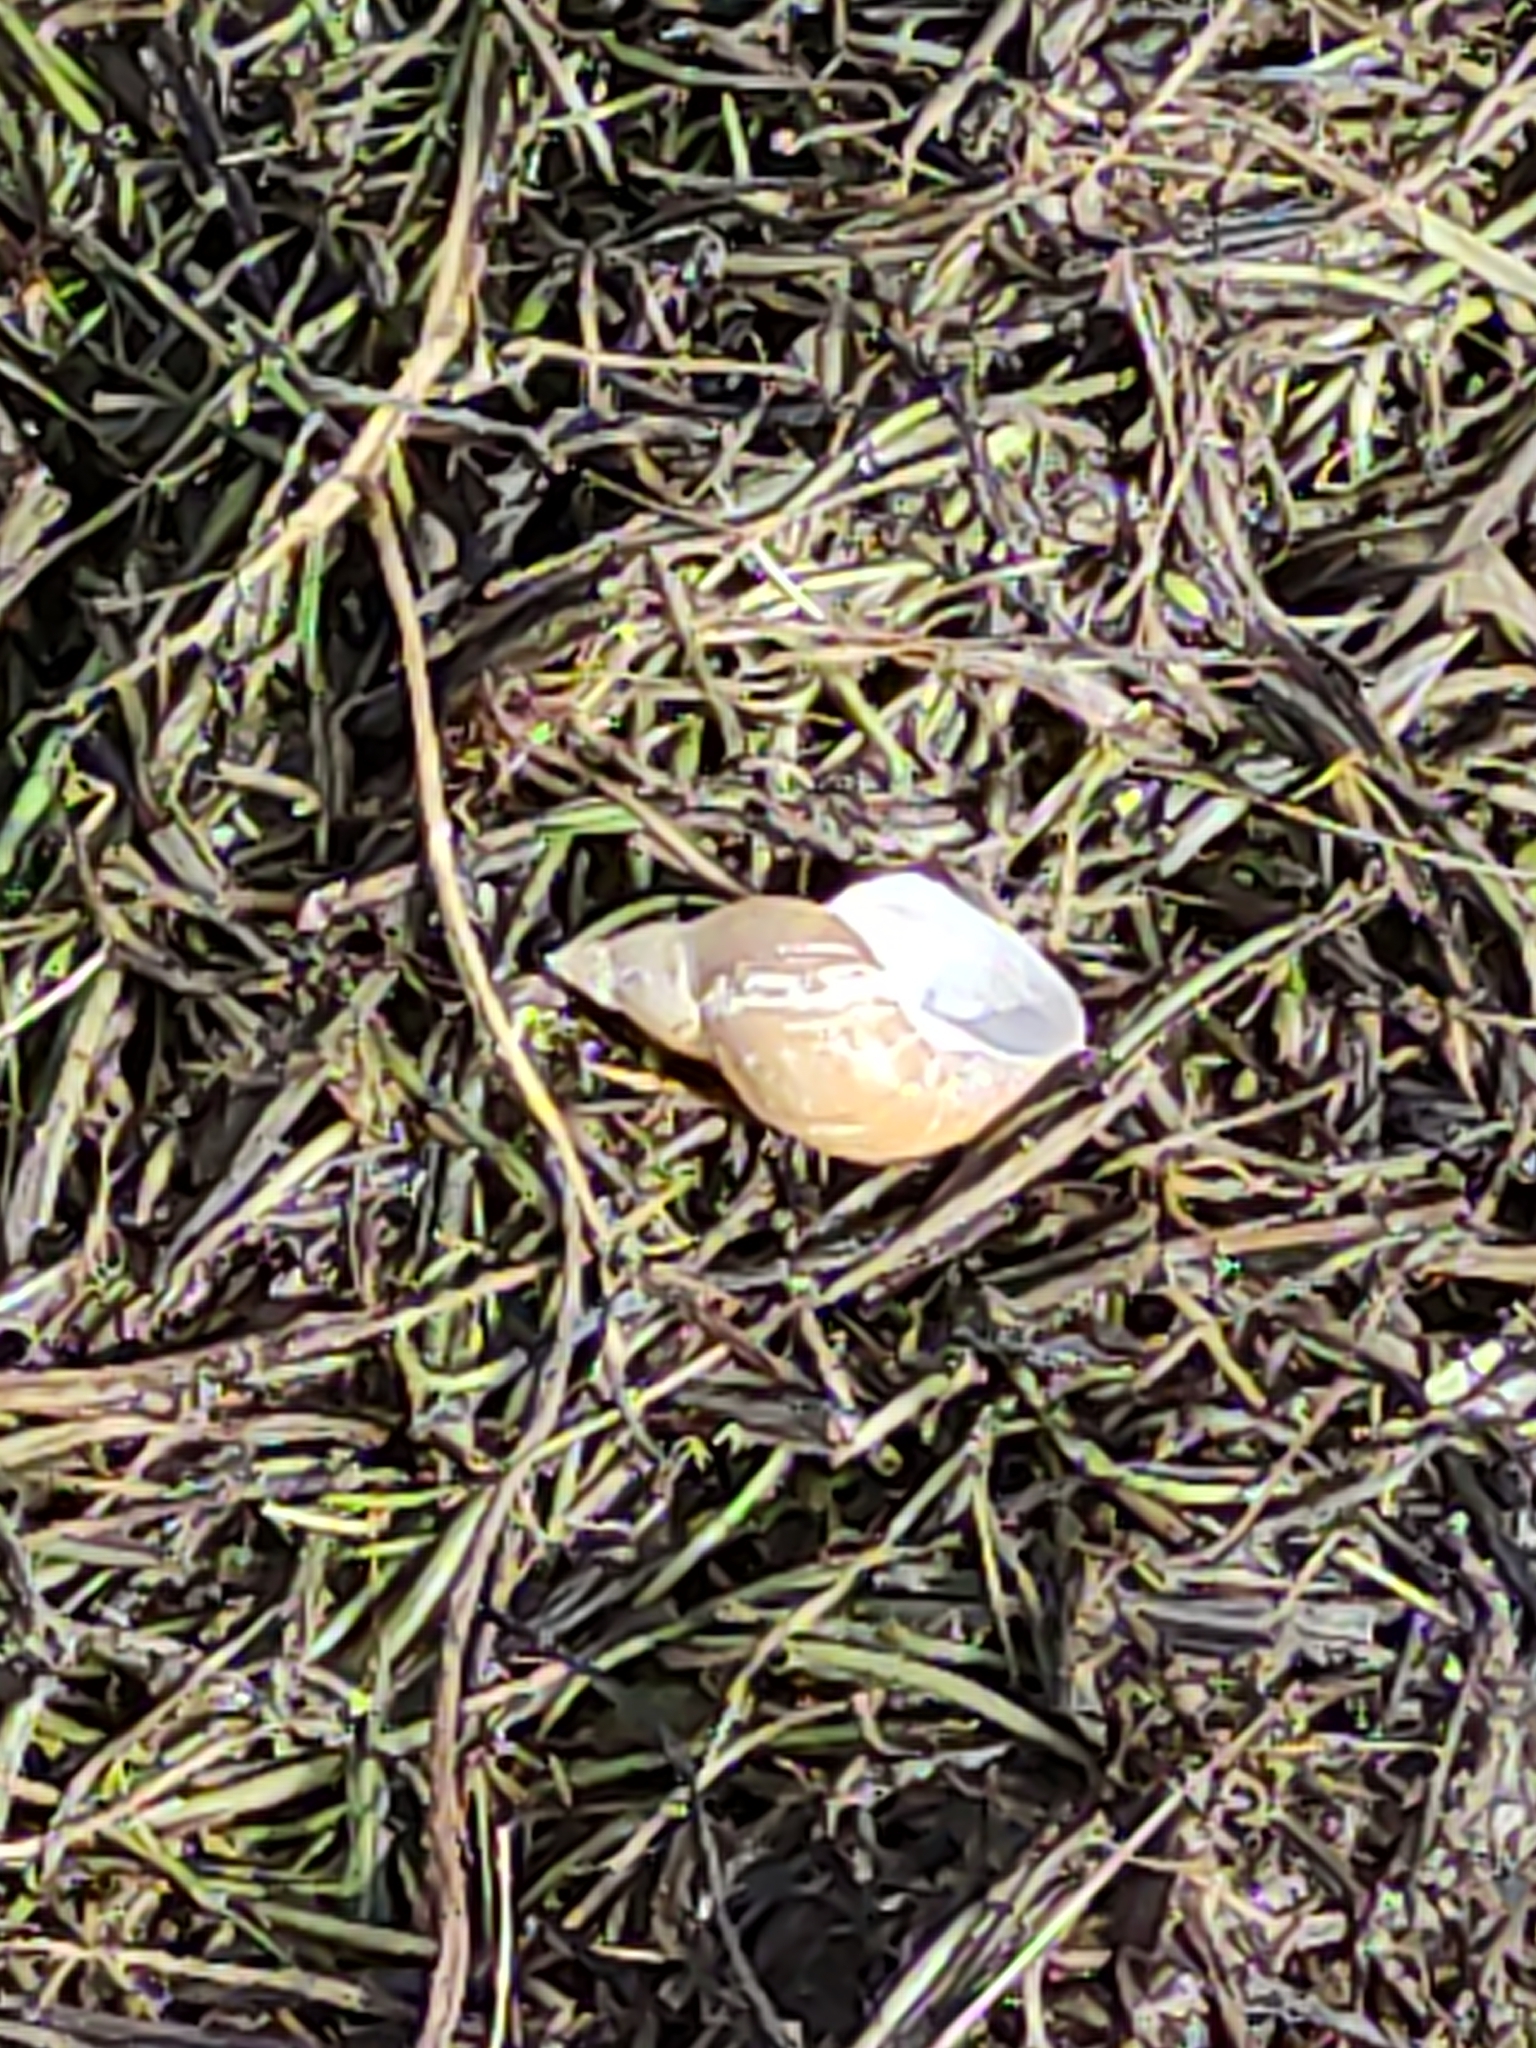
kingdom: Animalia
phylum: Mollusca
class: Gastropoda
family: Lymnaeidae
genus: Lymnaea
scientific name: Lymnaea stagnalis
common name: Great pond snail
